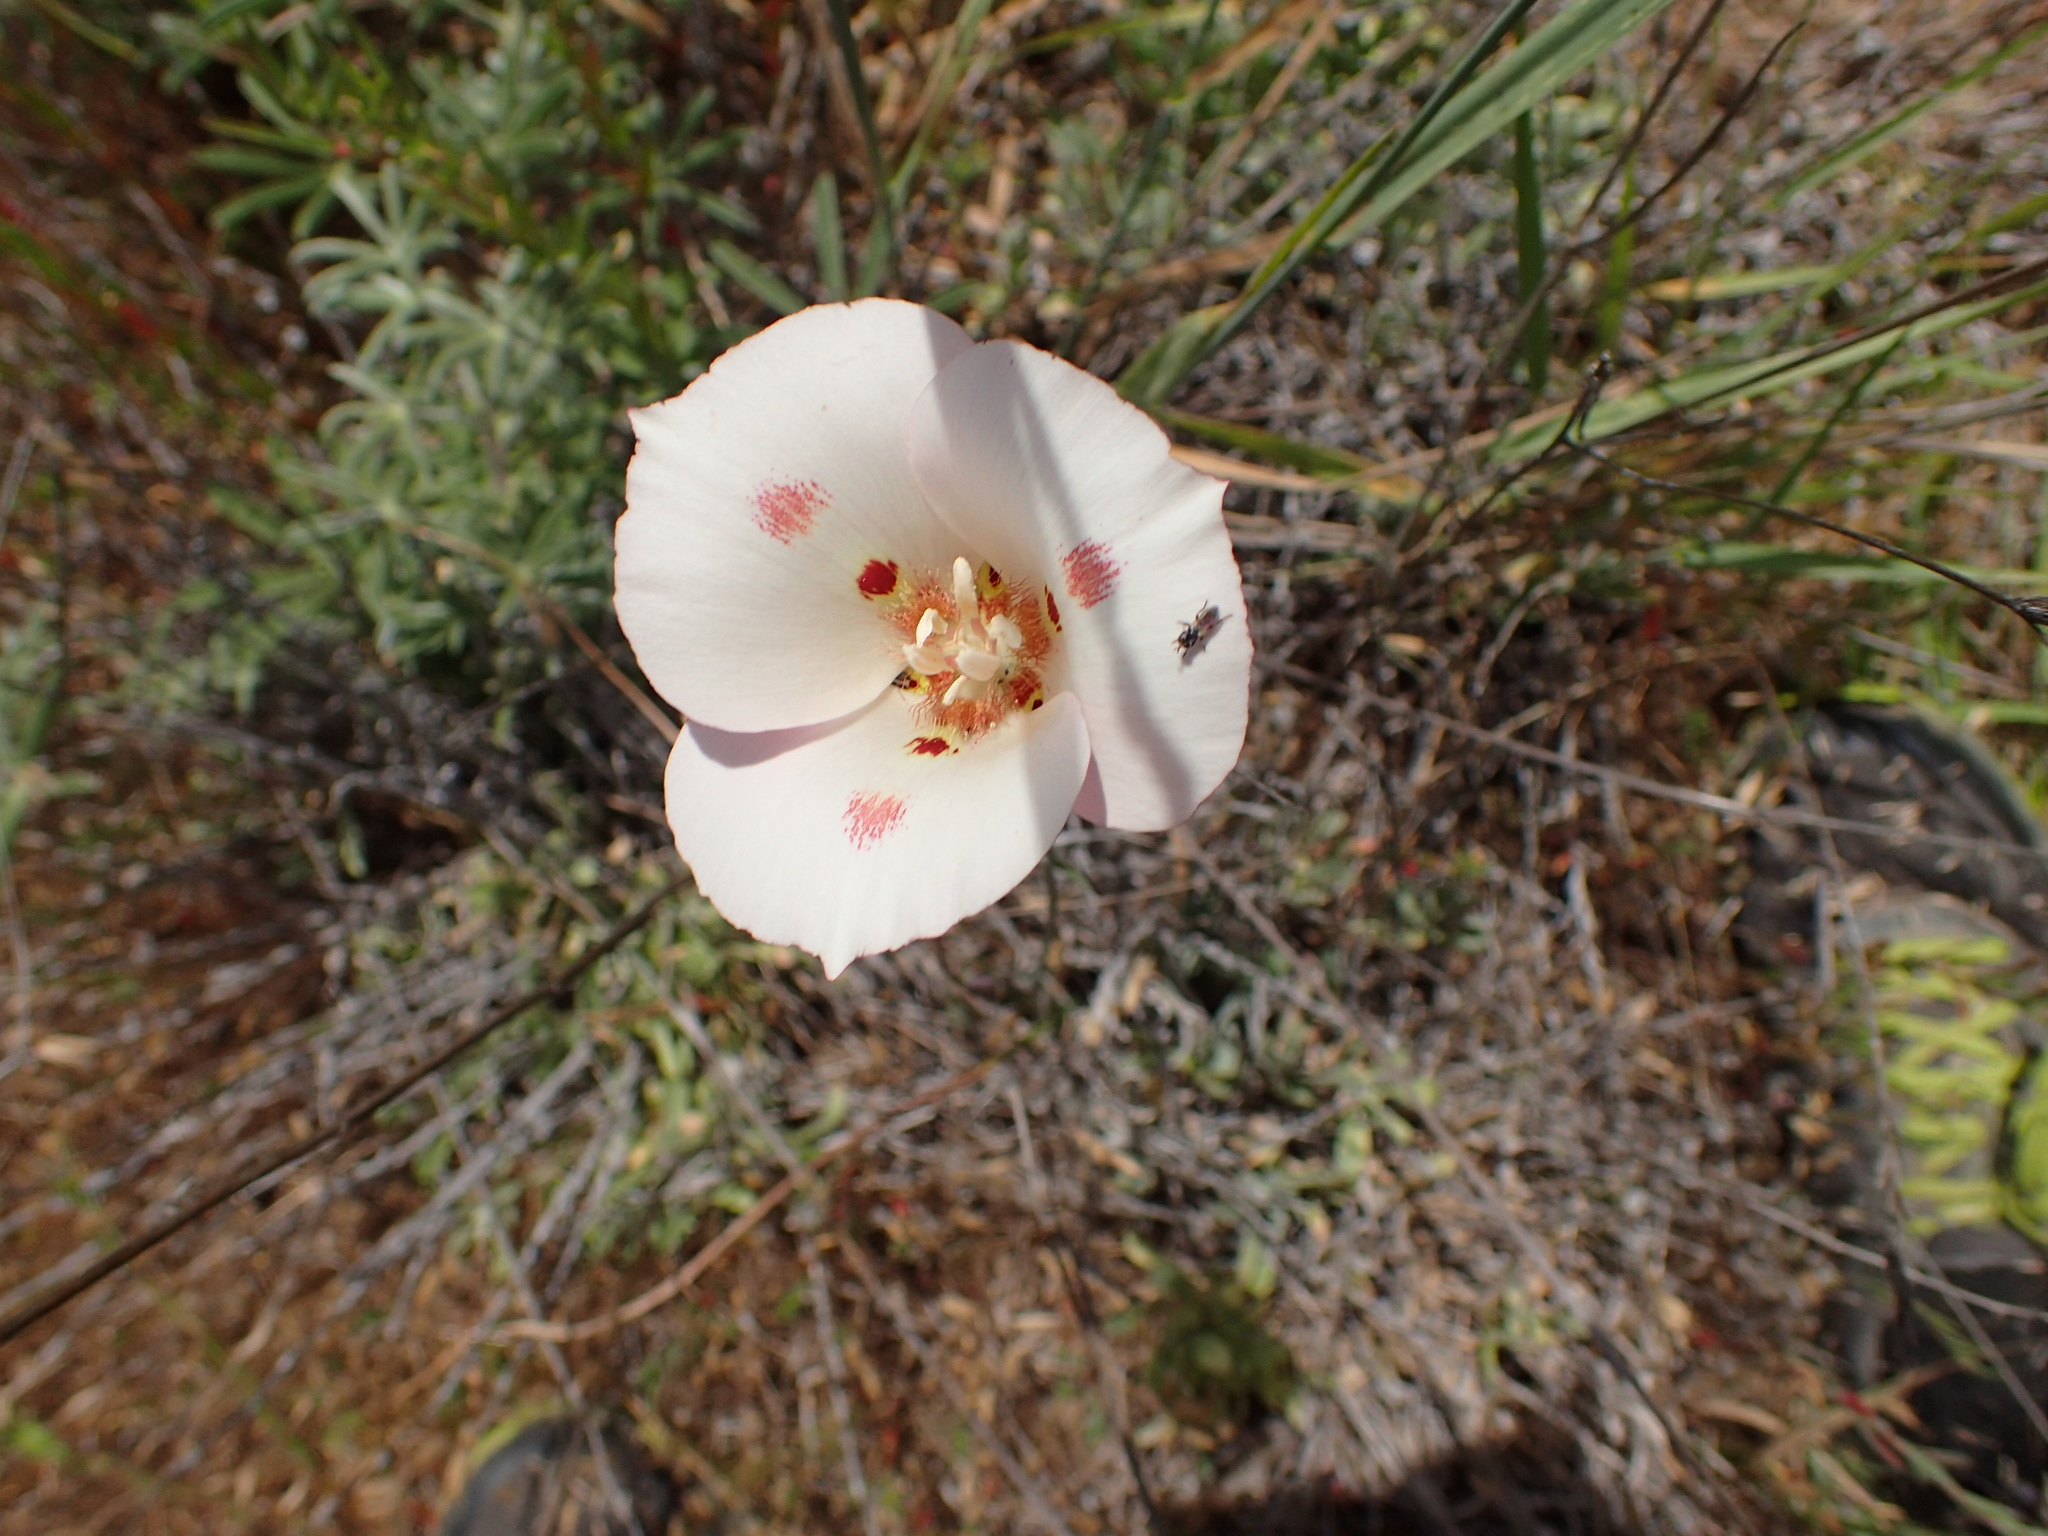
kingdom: Plantae
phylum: Tracheophyta
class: Liliopsida
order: Liliales
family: Liliaceae
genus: Calochortus
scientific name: Calochortus venustus
